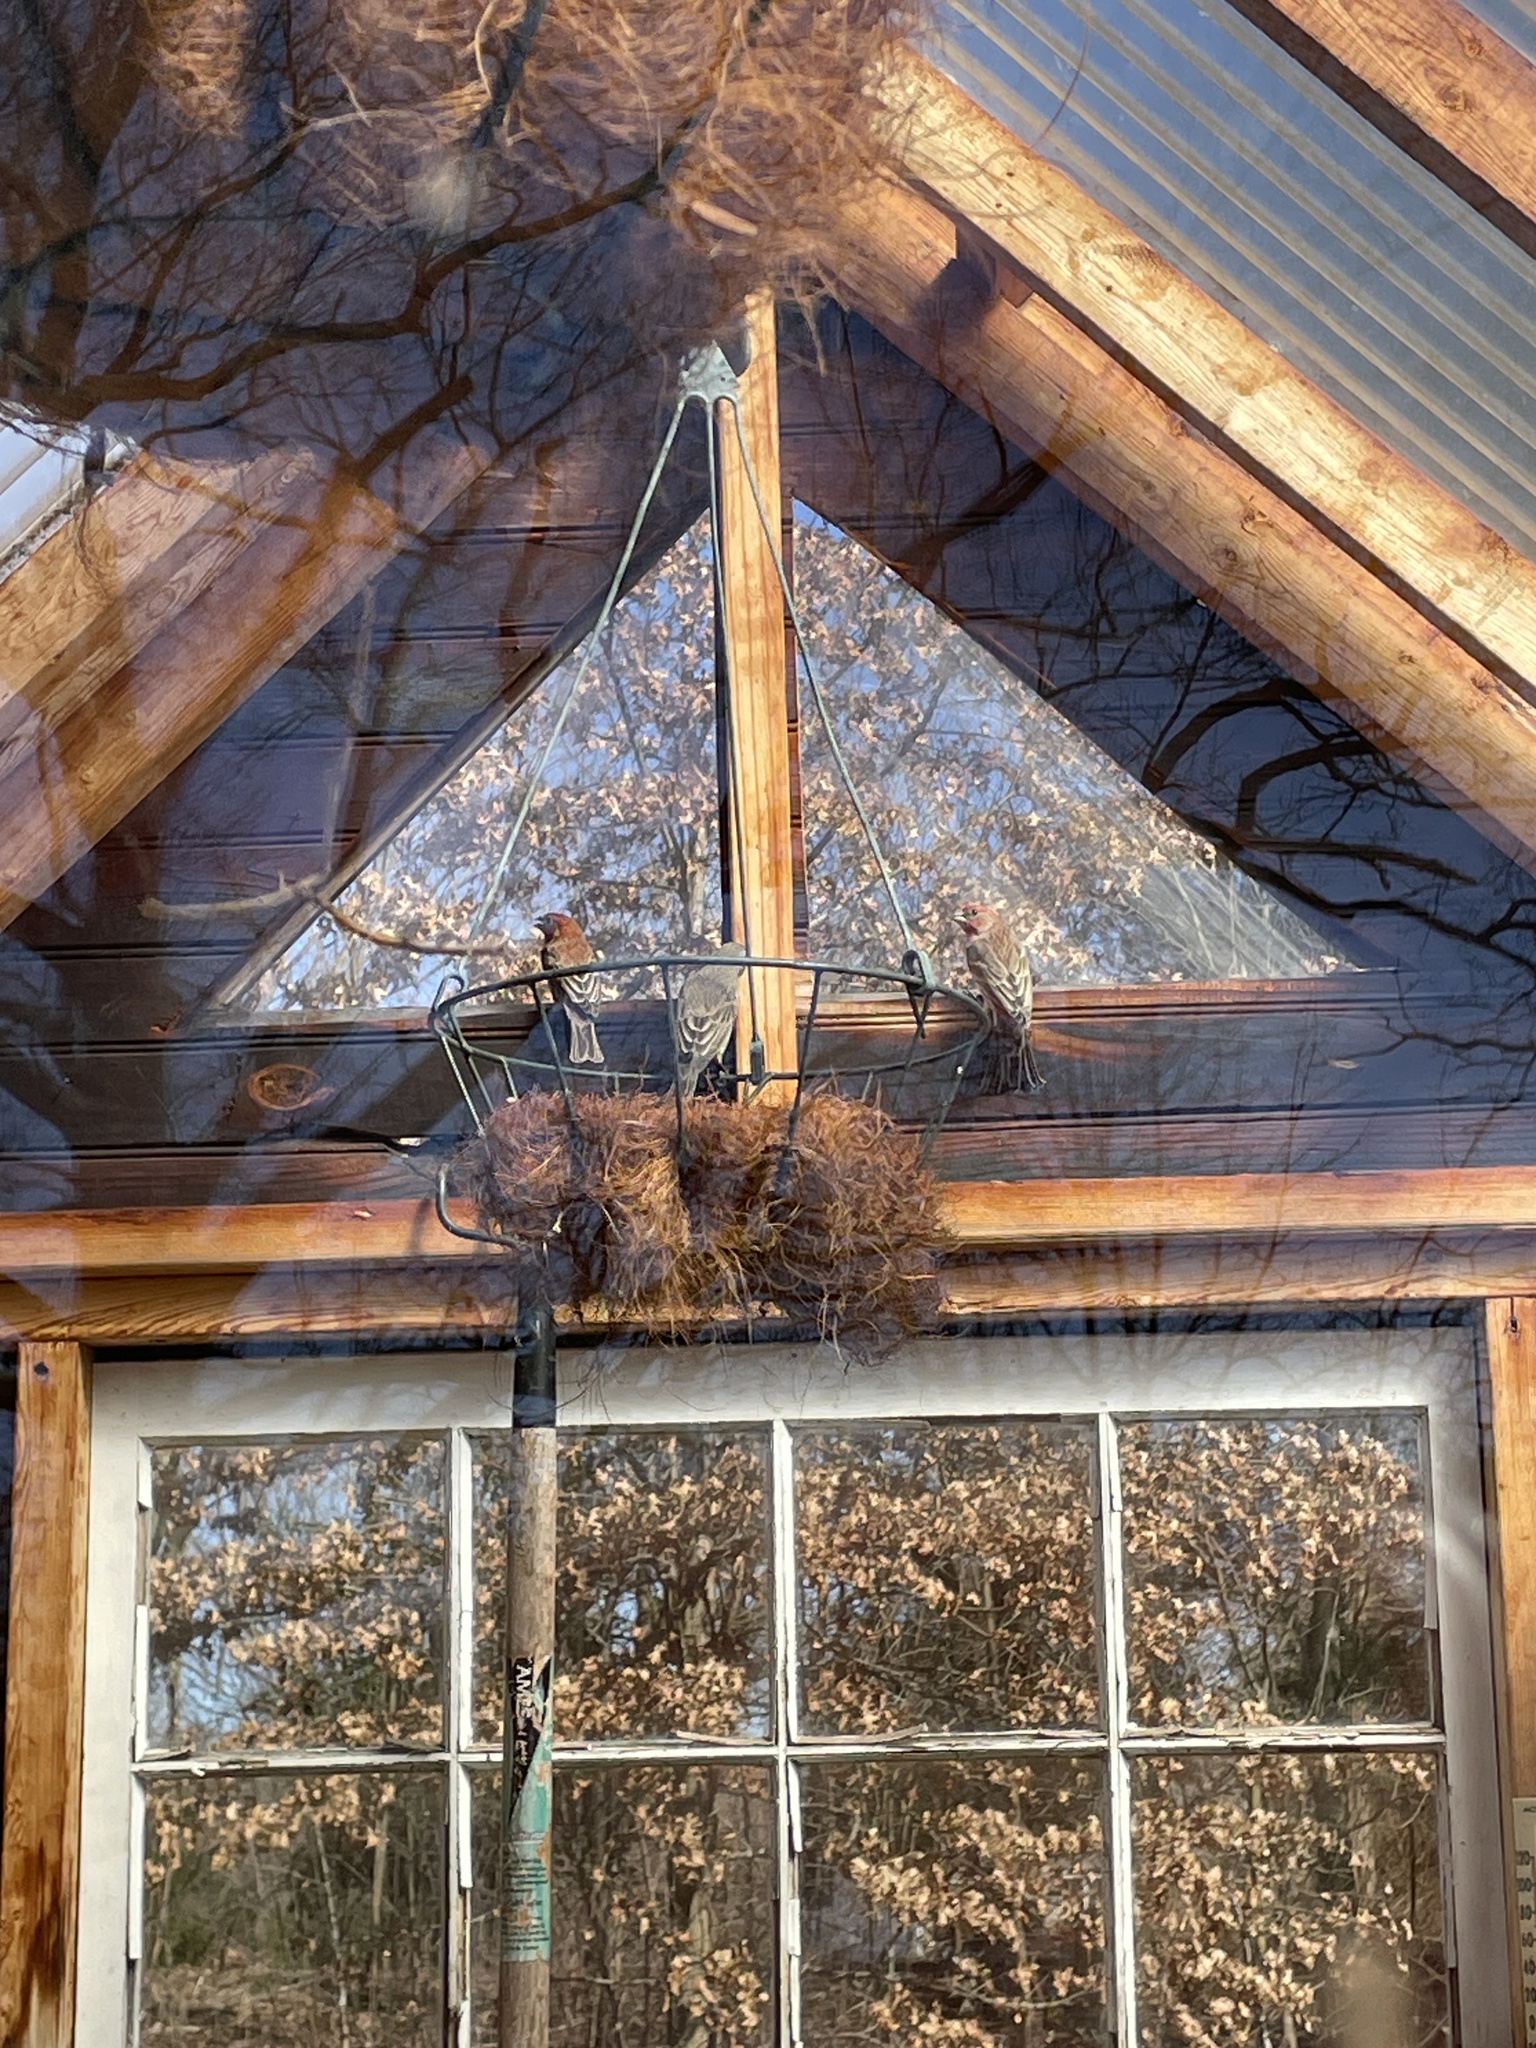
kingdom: Animalia
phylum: Chordata
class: Aves
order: Passeriformes
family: Fringillidae
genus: Haemorhous
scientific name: Haemorhous mexicanus
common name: House finch
